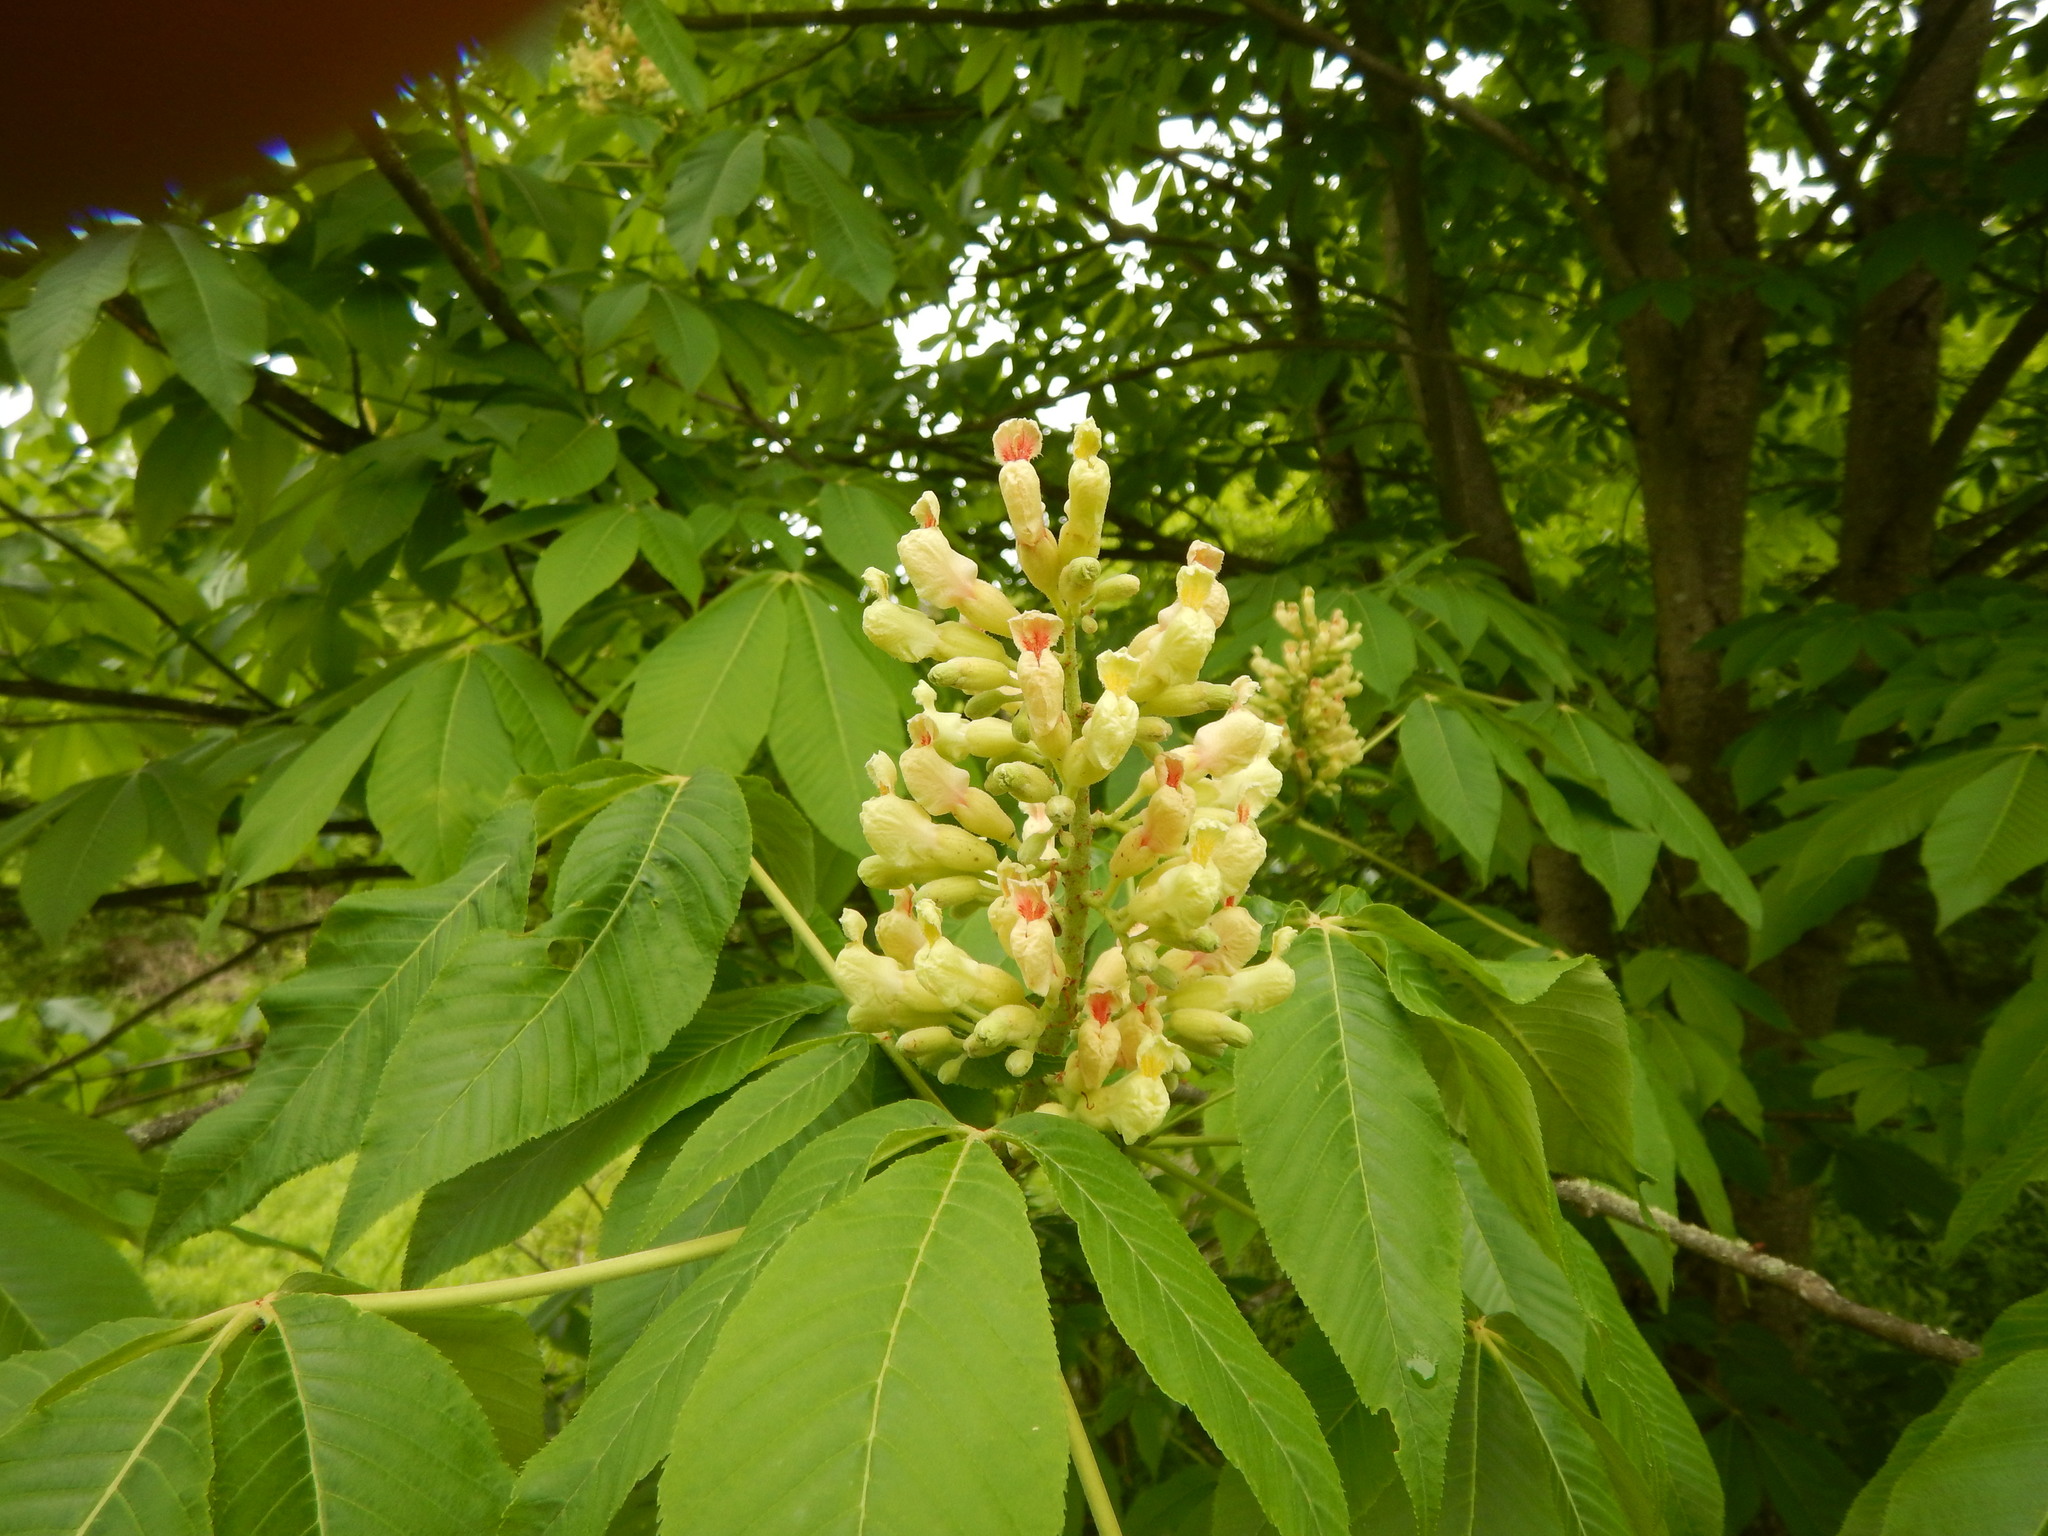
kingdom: Plantae
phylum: Tracheophyta
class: Magnoliopsida
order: Sapindales
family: Sapindaceae
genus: Aesculus
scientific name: Aesculus flava
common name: Yellow buckeye
